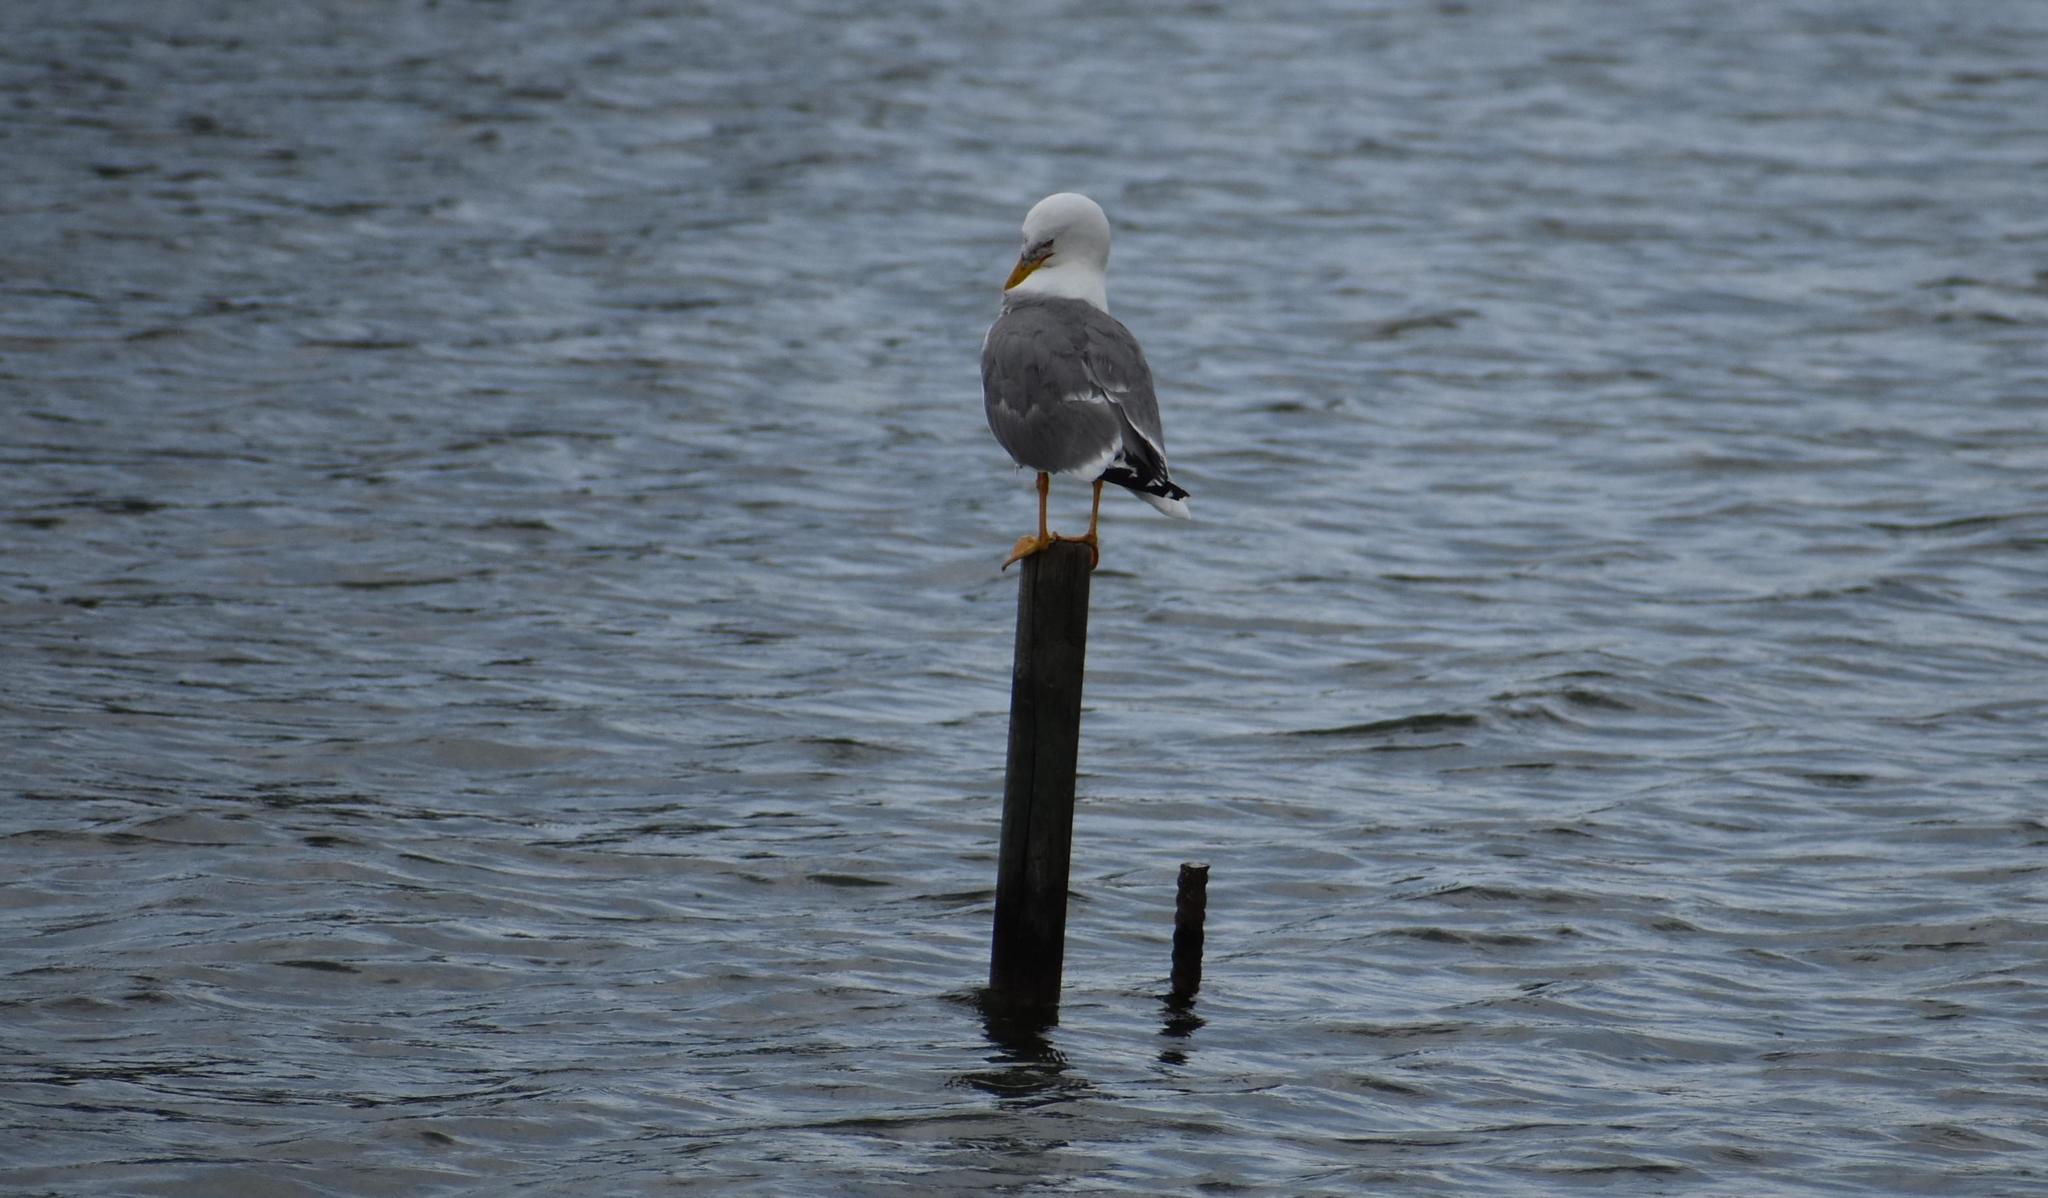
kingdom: Animalia
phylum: Chordata
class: Aves
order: Charadriiformes
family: Laridae
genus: Larus
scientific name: Larus michahellis
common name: Yellow-legged gull
